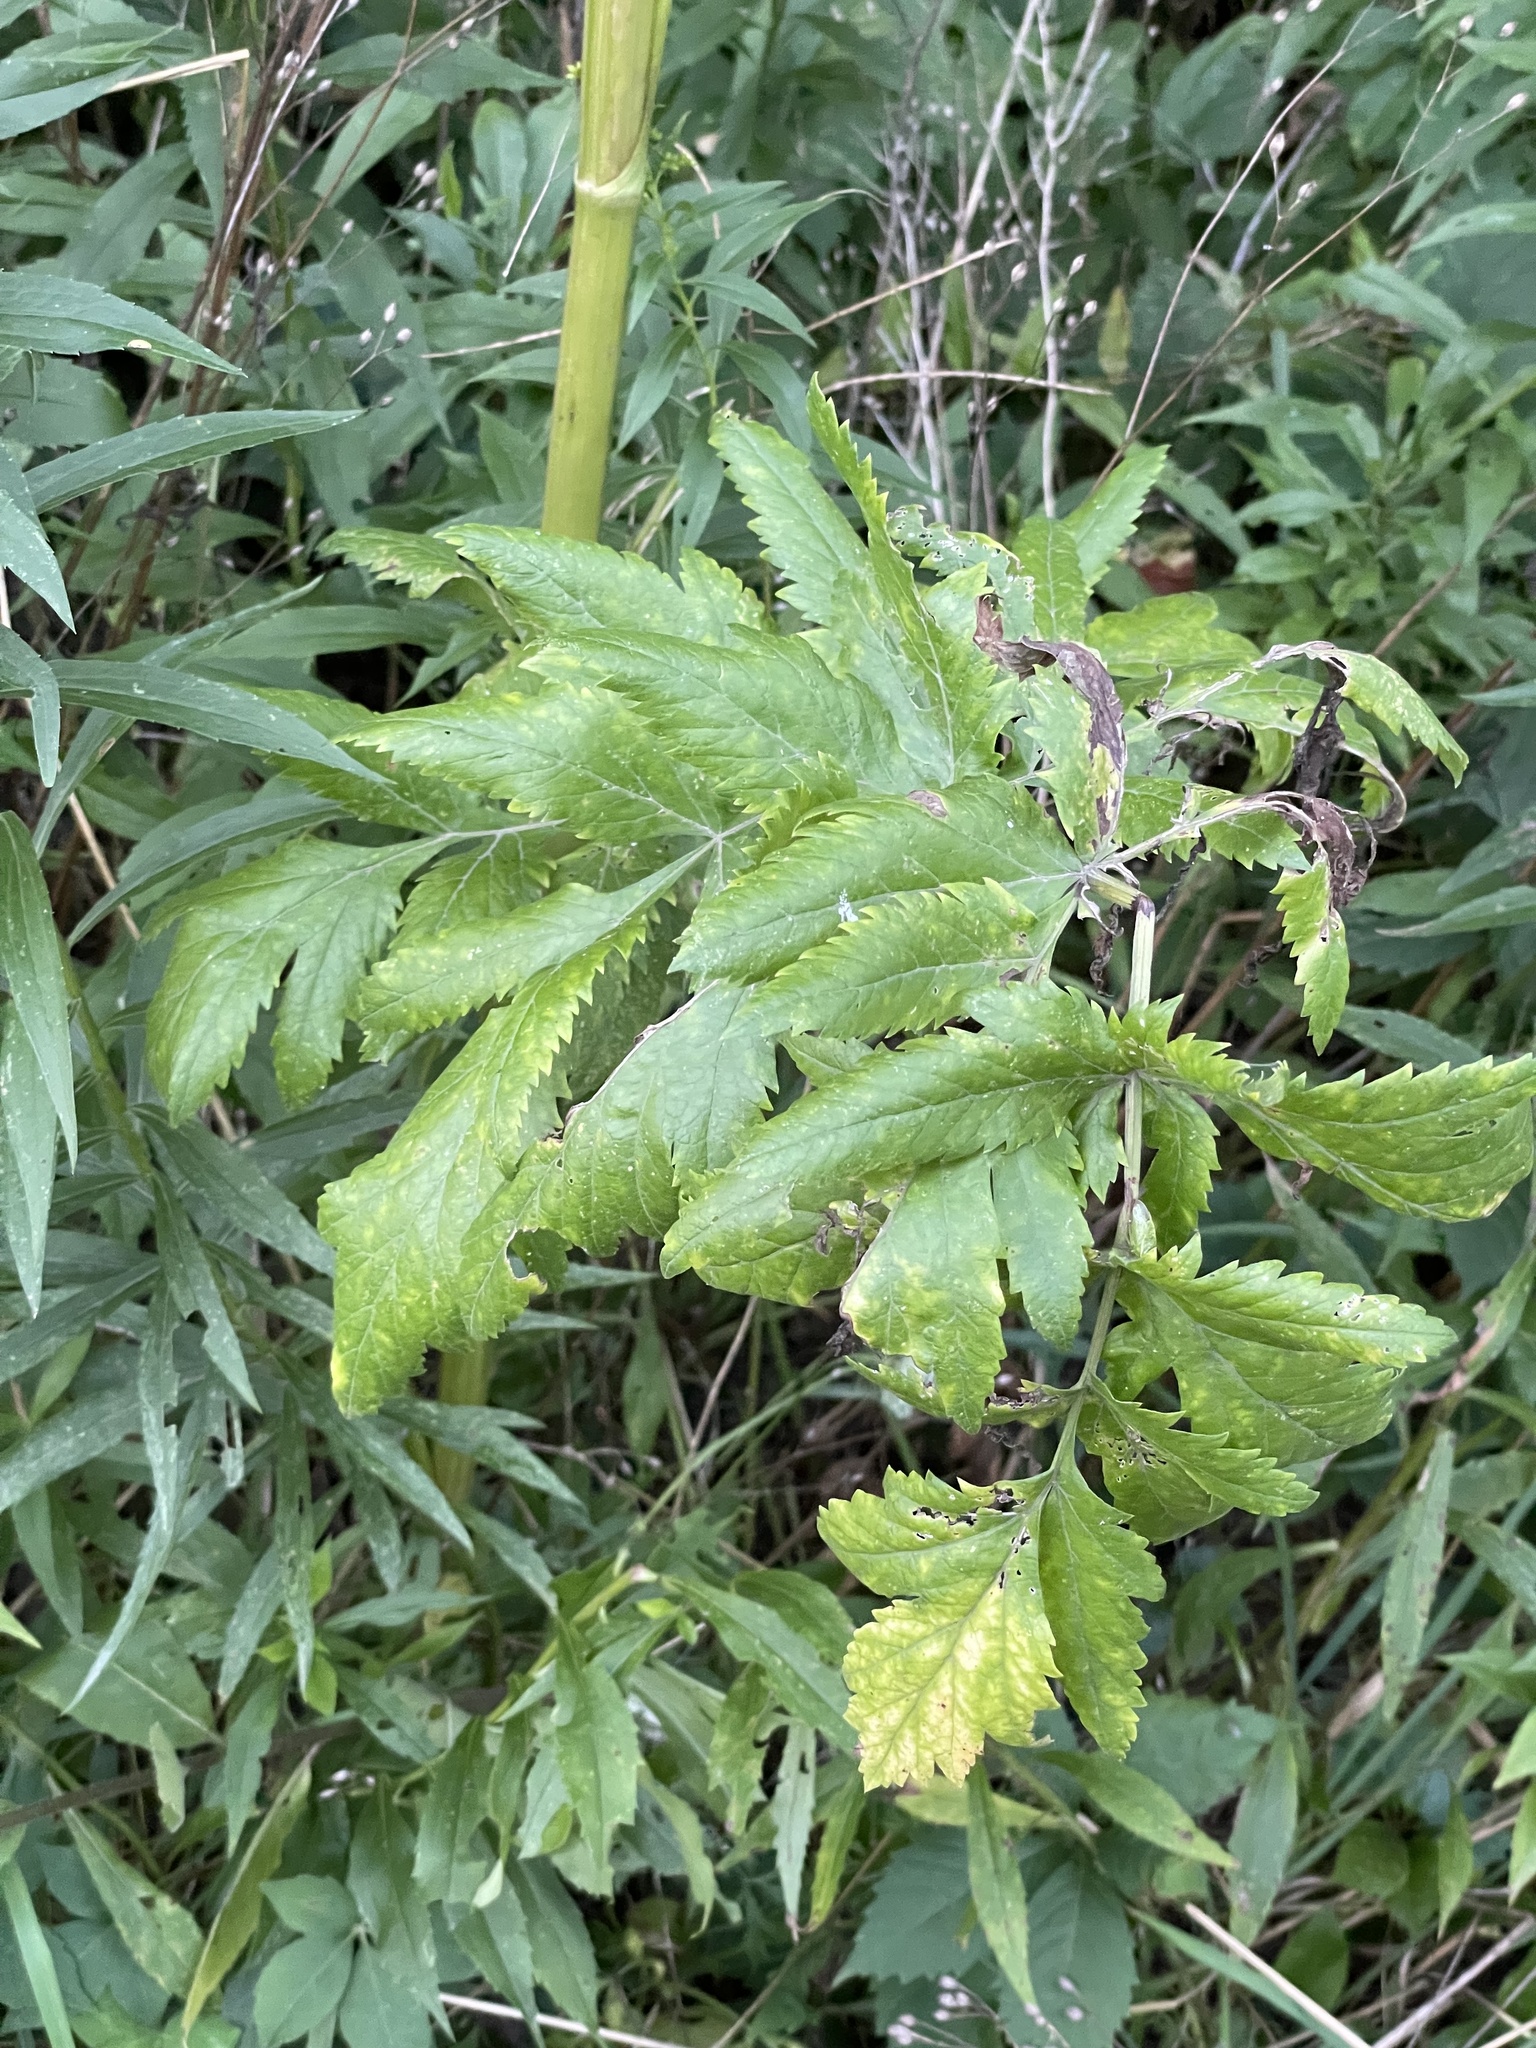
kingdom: Plantae
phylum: Tracheophyta
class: Magnoliopsida
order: Apiales
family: Apiaceae
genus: Pastinaca
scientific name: Pastinaca sativa
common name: Wild parsnip
